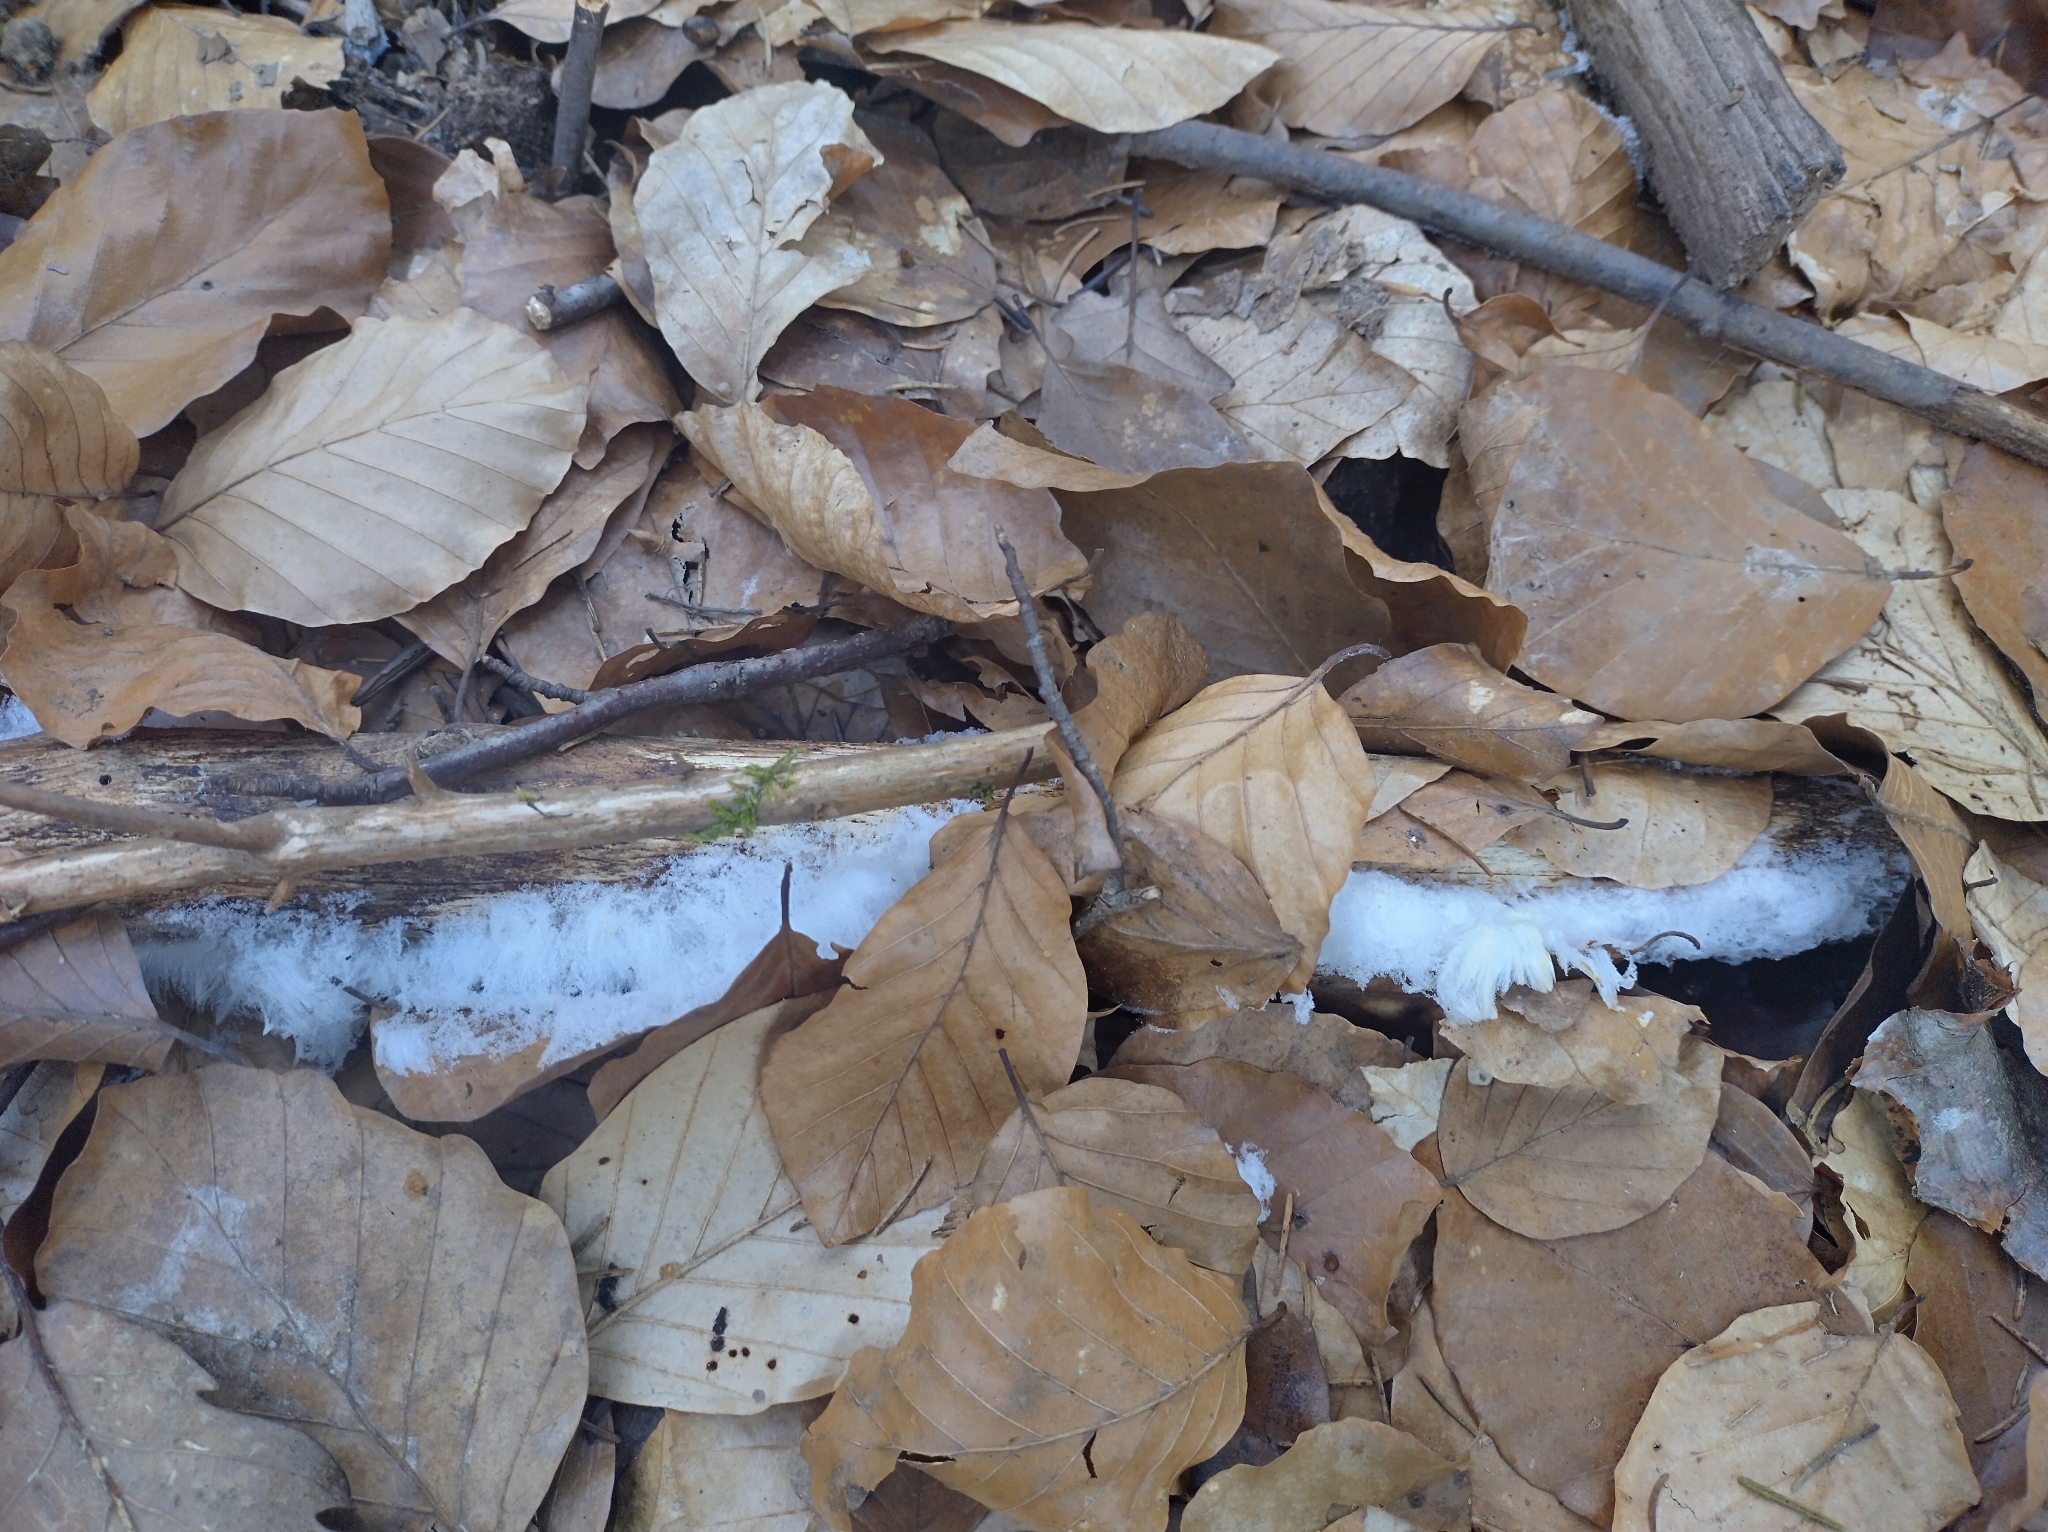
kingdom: Fungi
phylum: Basidiomycota
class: Agaricomycetes
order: Auriculariales
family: Auriculariaceae
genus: Exidiopsis
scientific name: Exidiopsis effusa
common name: Hair ice crust
